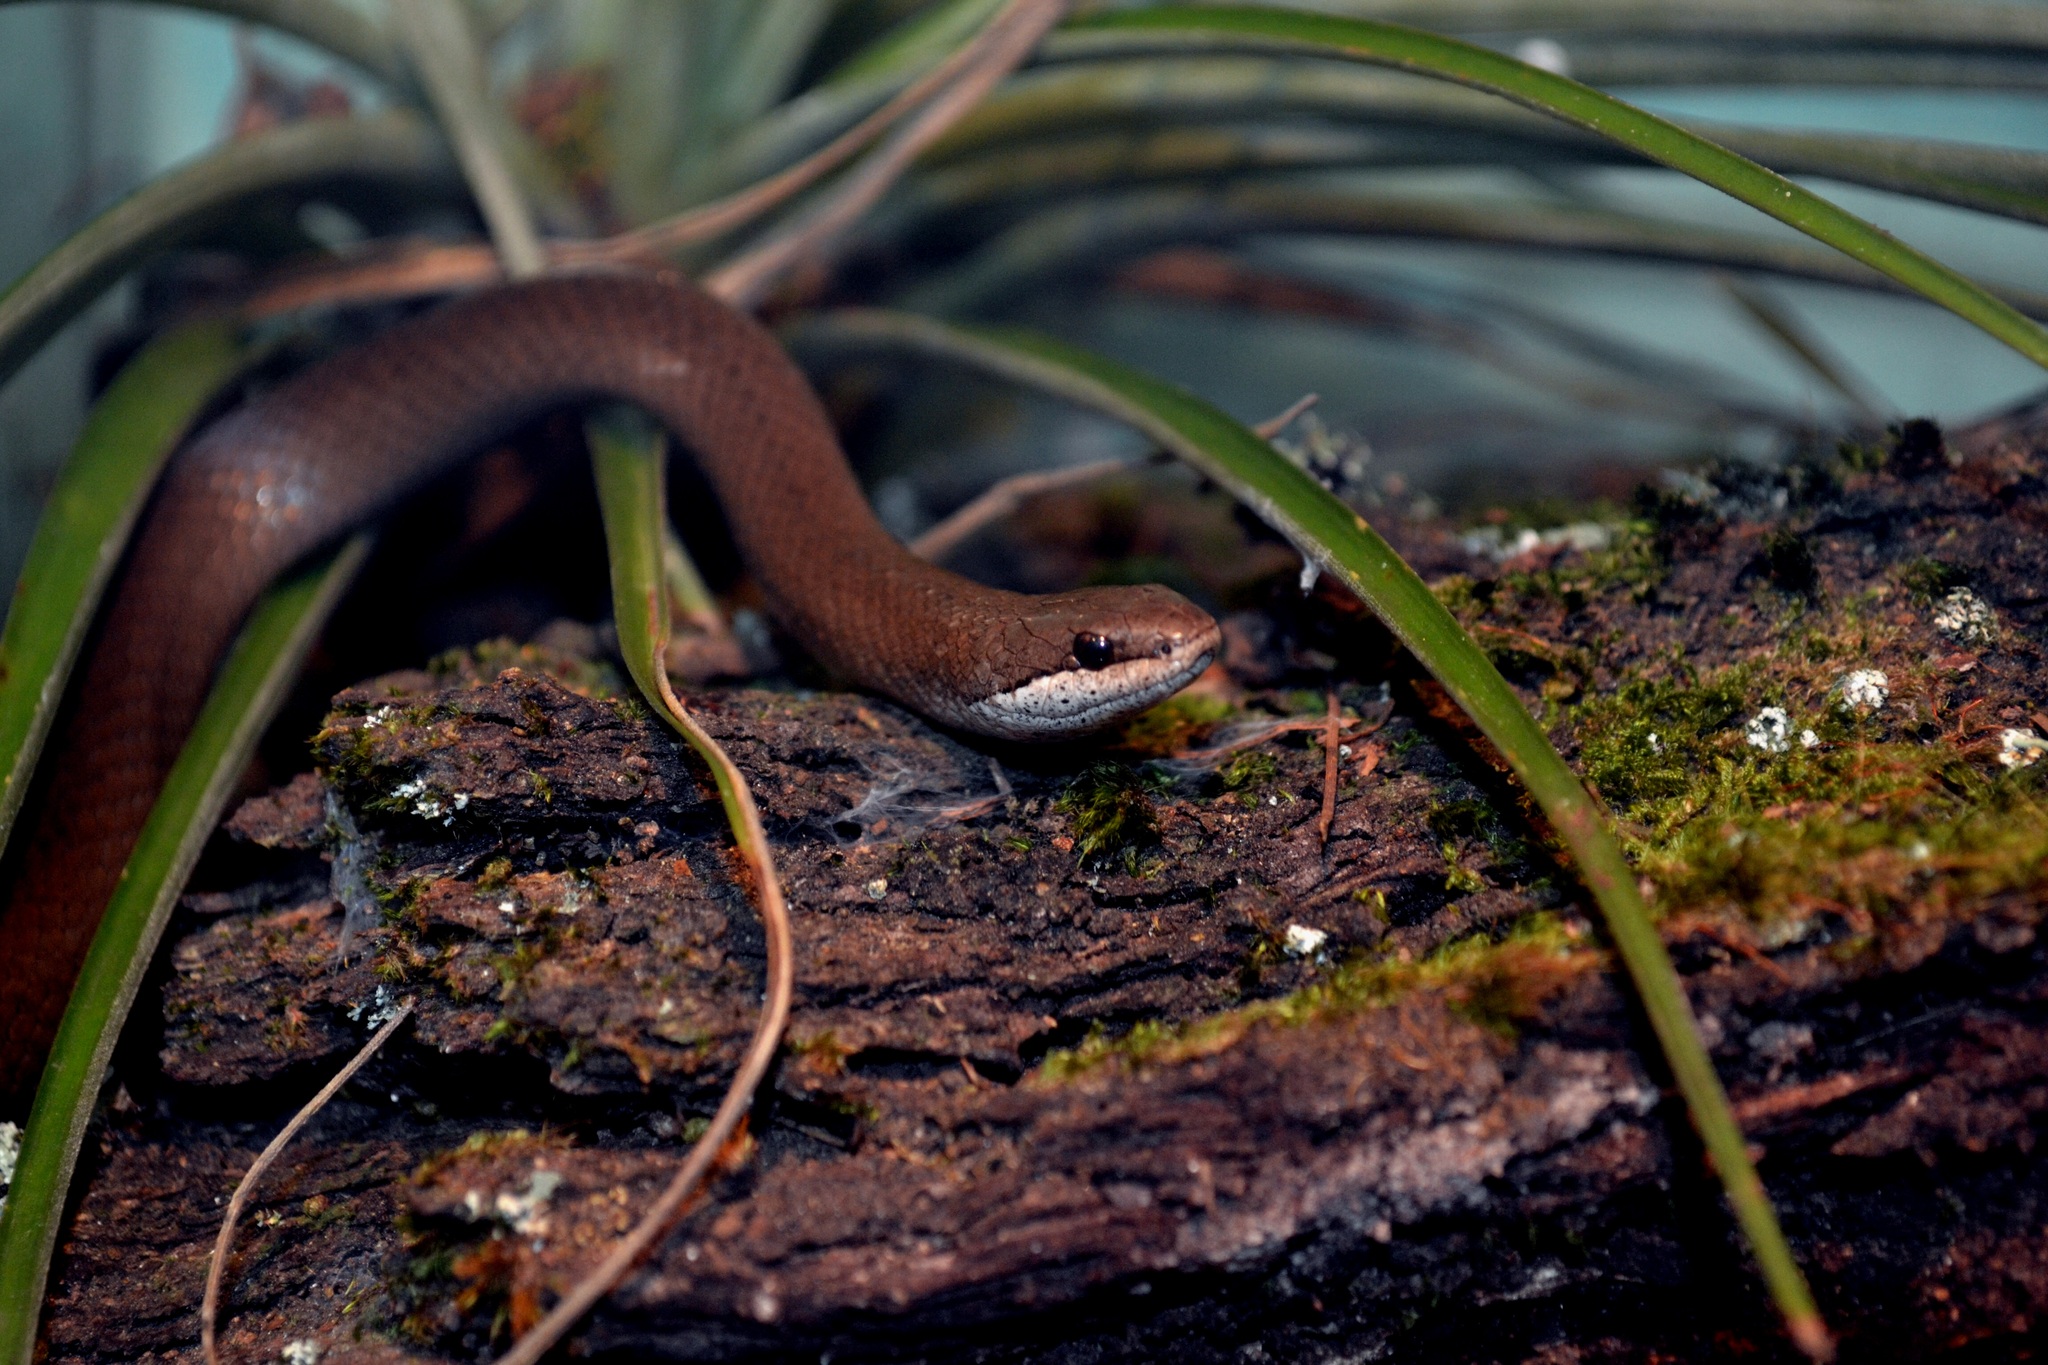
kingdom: Animalia
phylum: Chordata
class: Squamata
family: Colubridae
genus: Coniophanes
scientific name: Coniophanes alvarezi
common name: Chiapan stripeless snake
